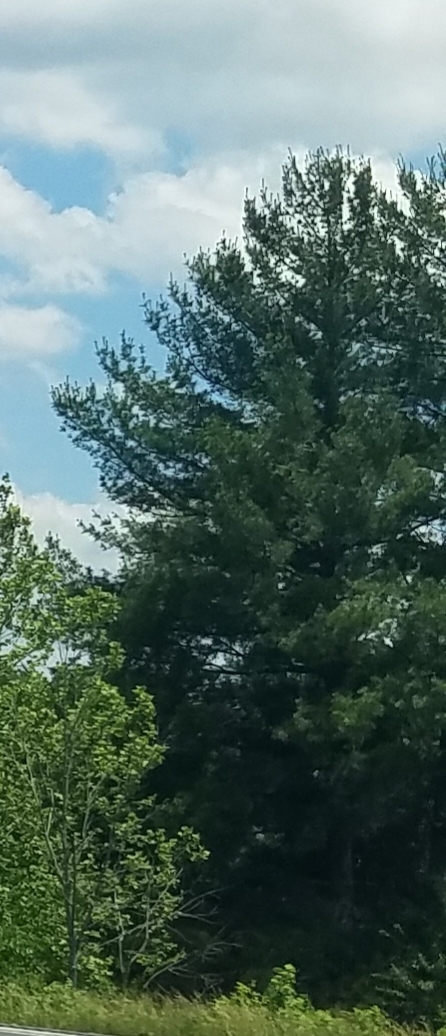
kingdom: Plantae
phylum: Tracheophyta
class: Pinopsida
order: Pinales
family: Pinaceae
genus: Pinus
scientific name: Pinus strobus
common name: Weymouth pine
